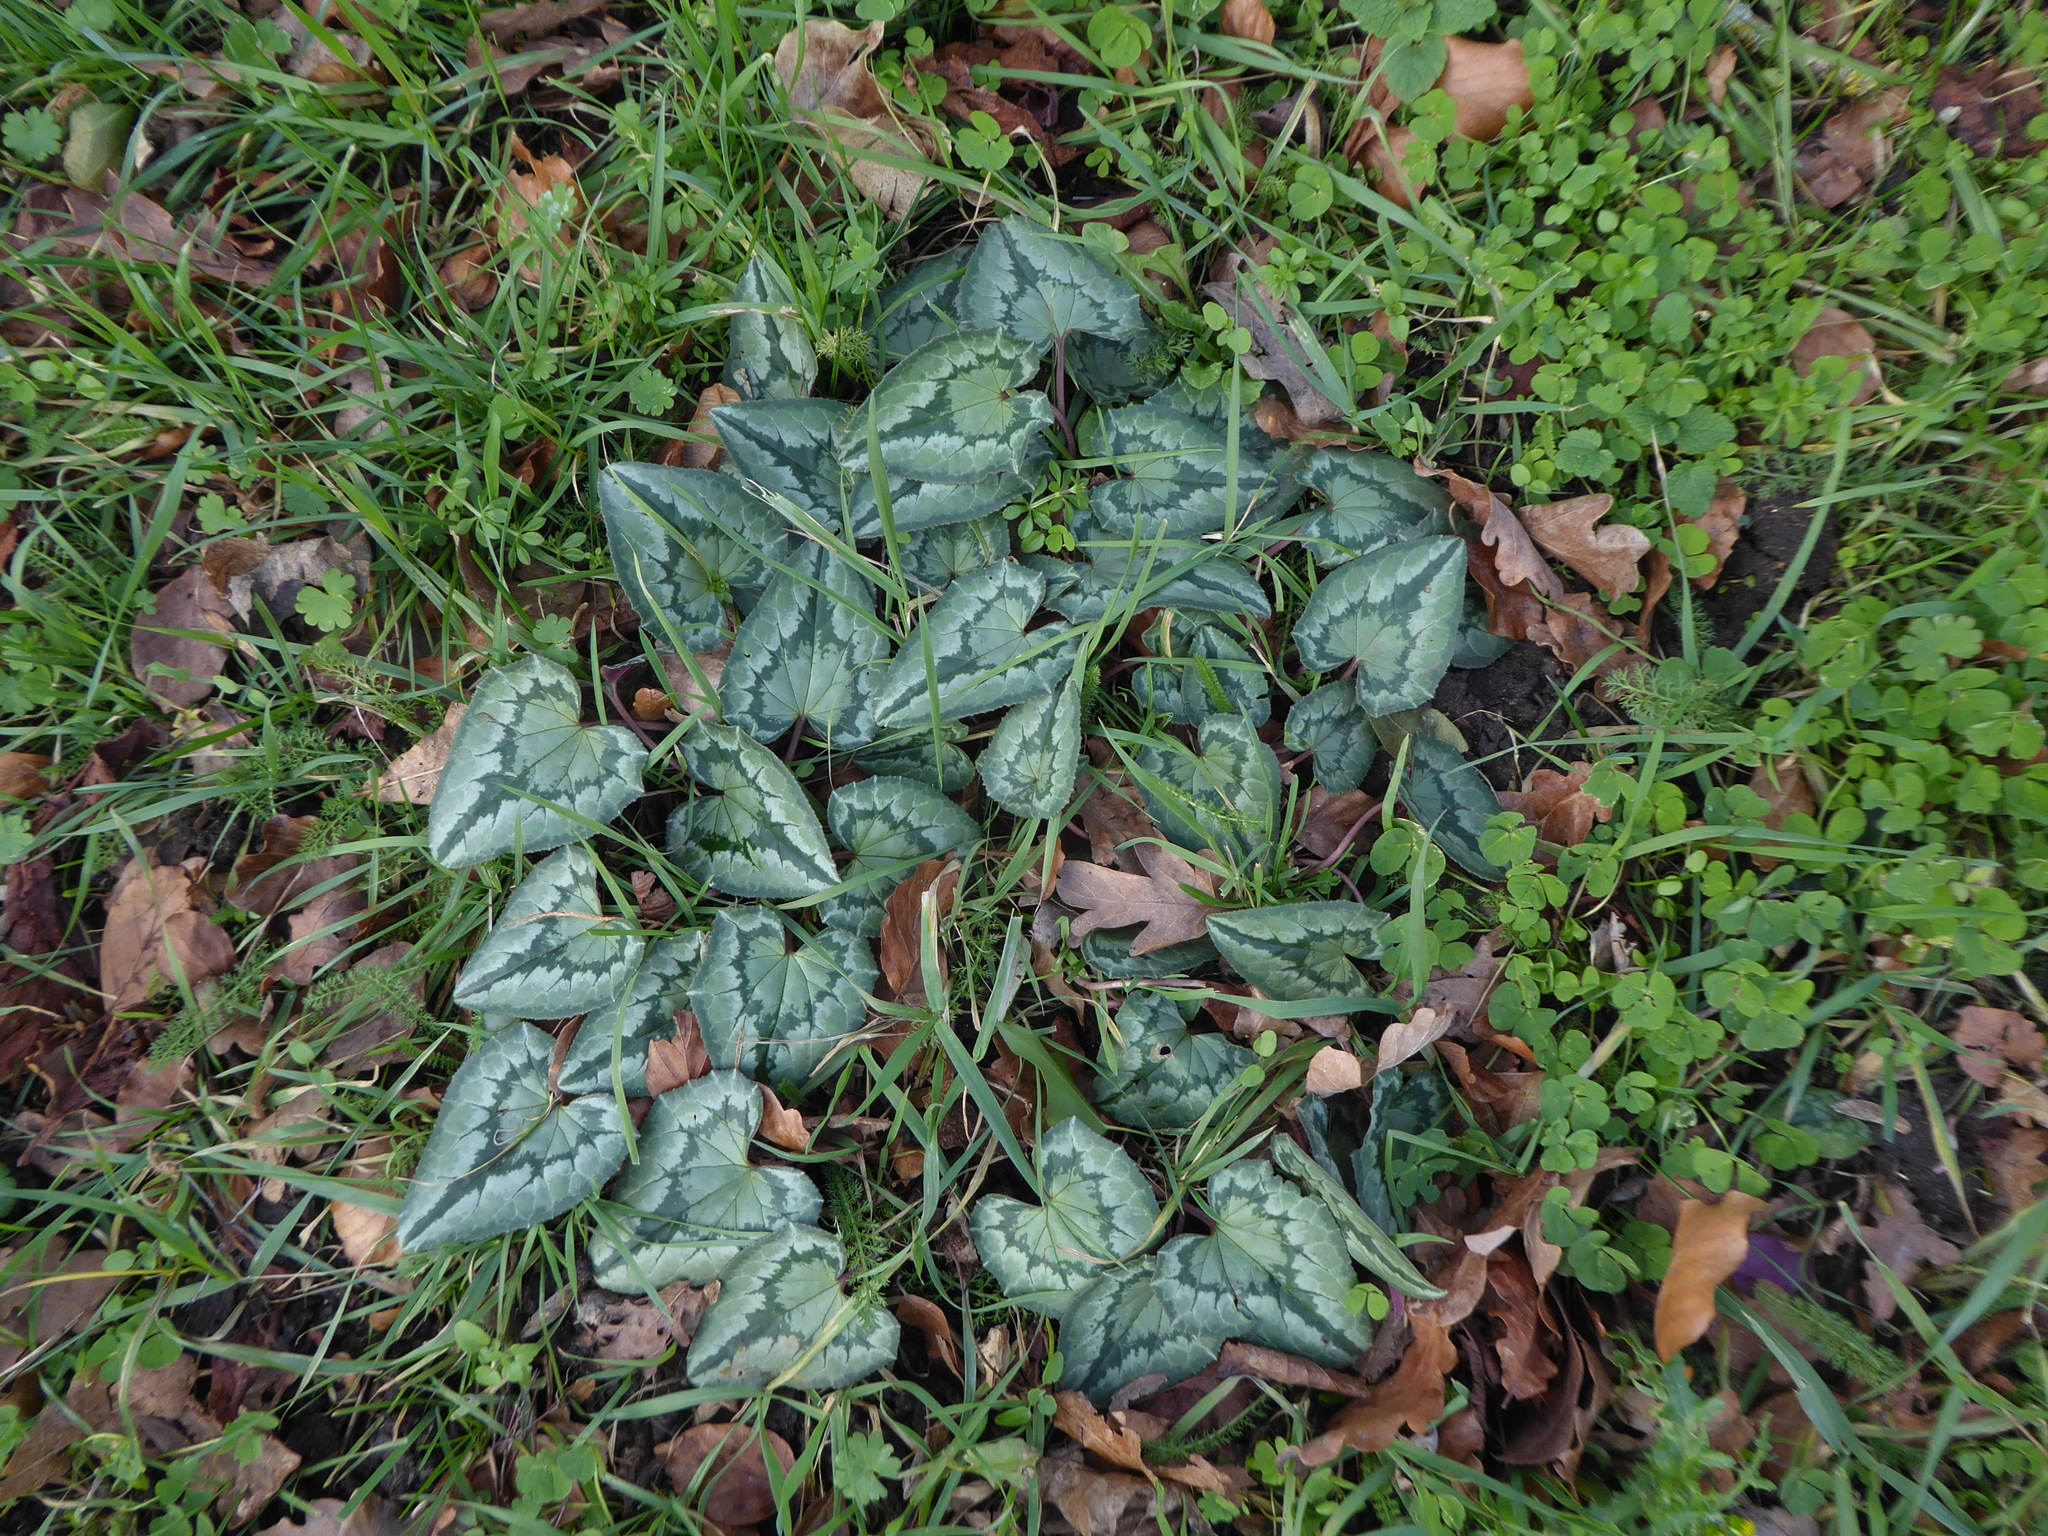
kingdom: Plantae
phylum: Tracheophyta
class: Magnoliopsida
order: Ericales
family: Primulaceae
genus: Cyclamen
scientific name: Cyclamen hederifolium
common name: Sowbread
